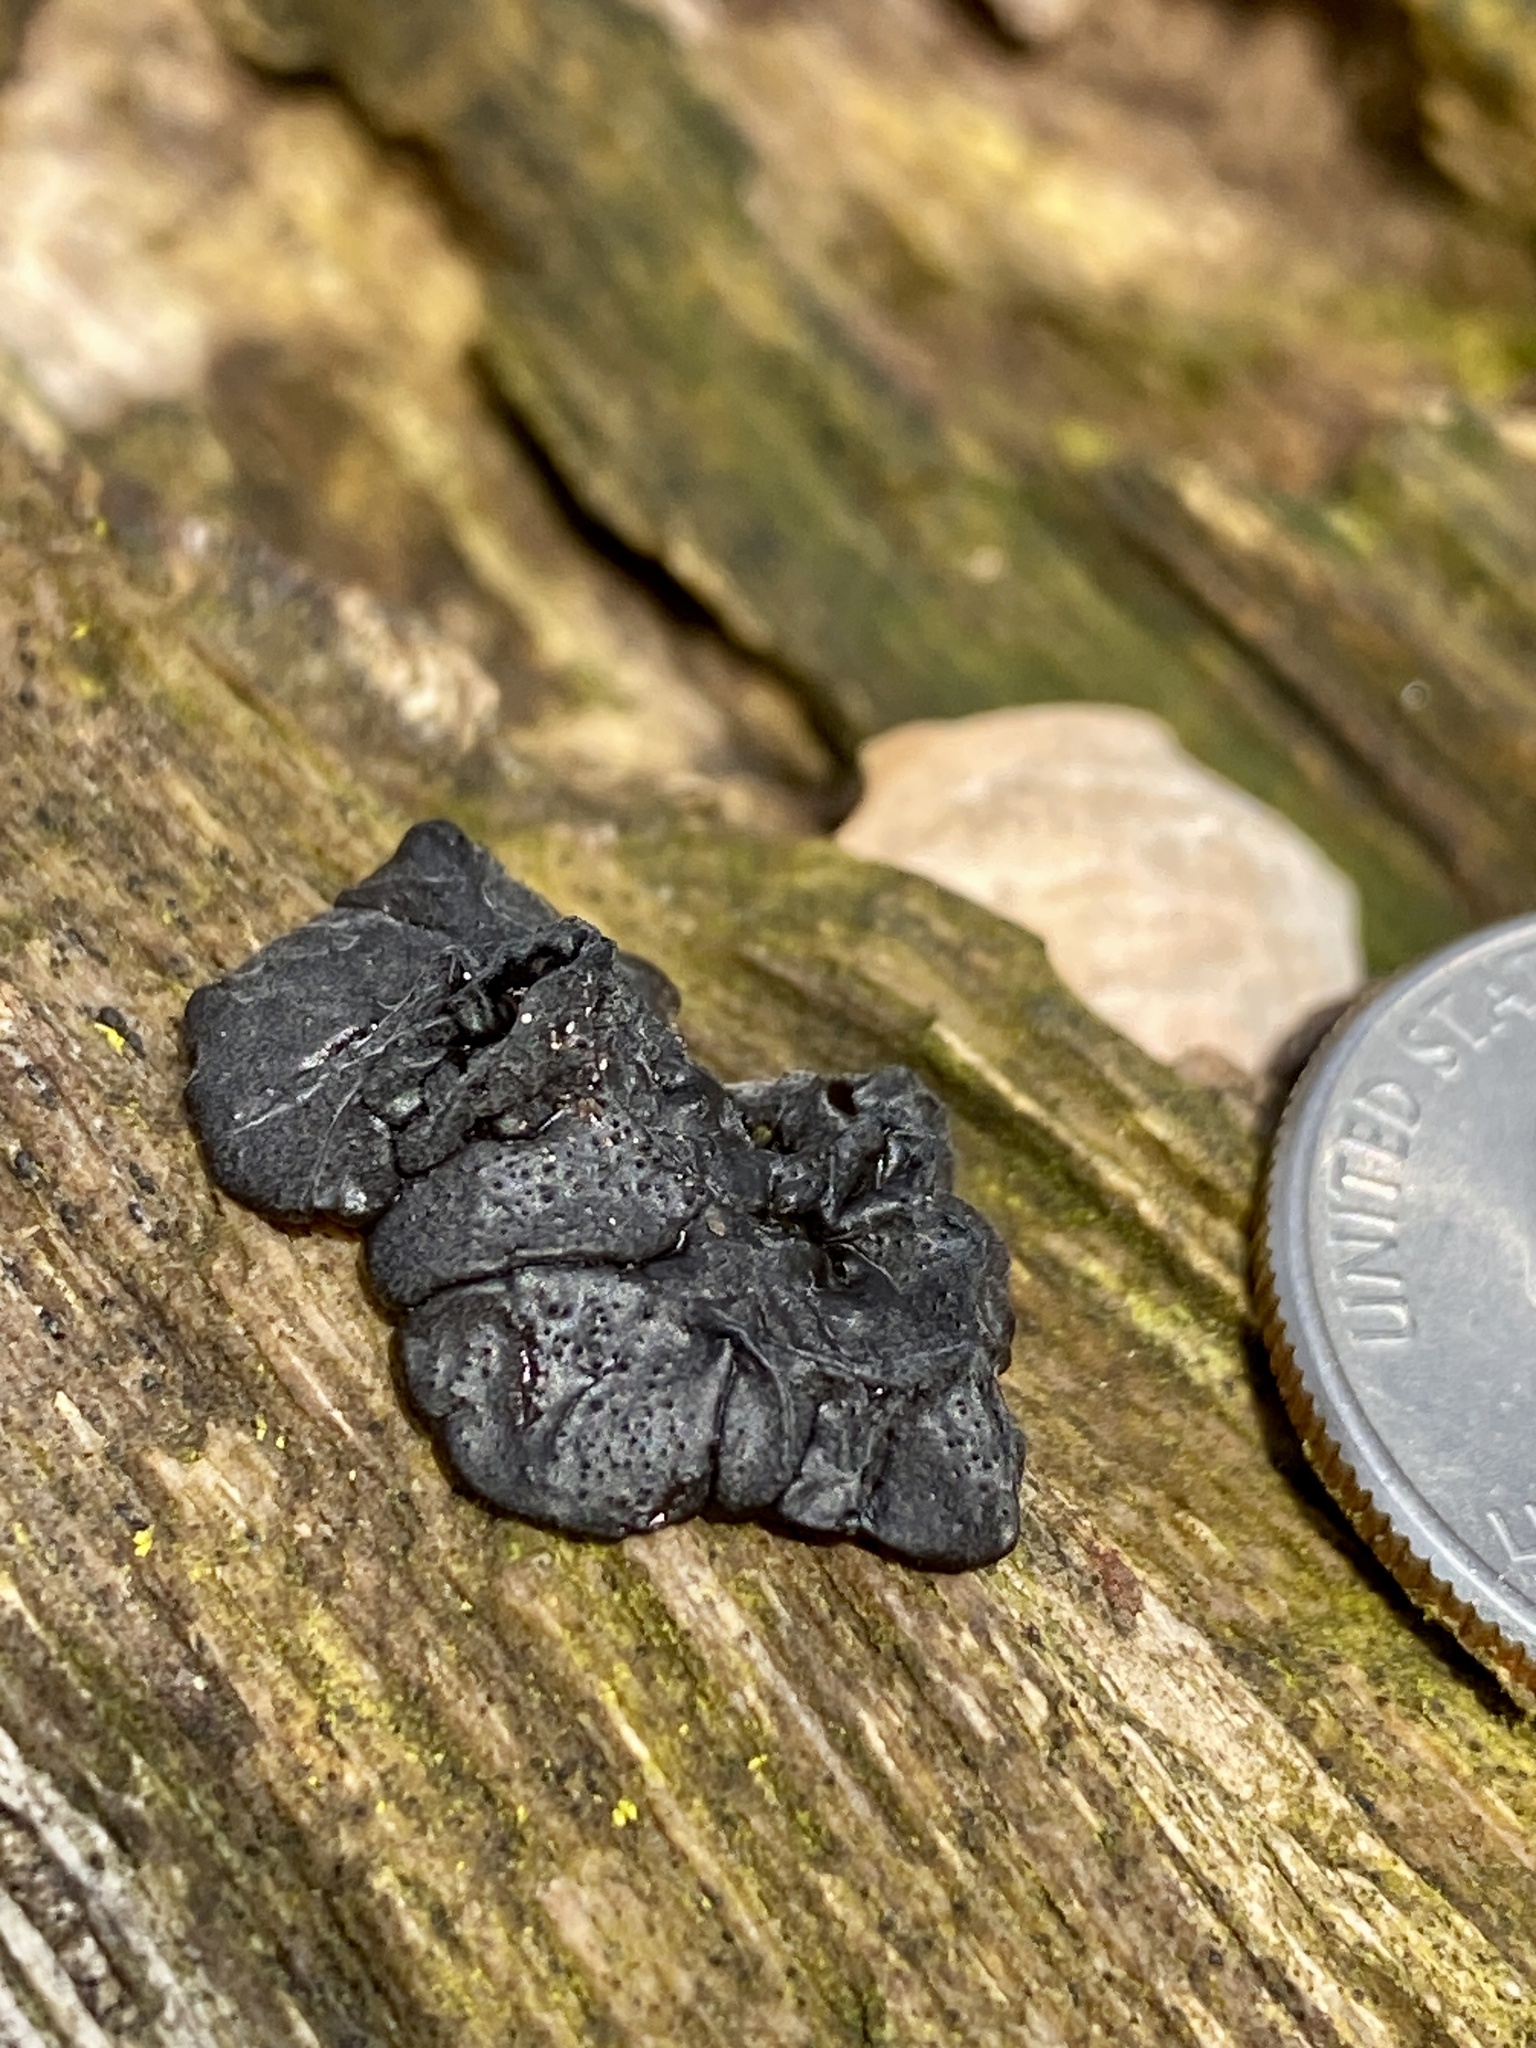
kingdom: Fungi
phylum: Basidiomycota
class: Agaricomycetes
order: Auriculariales
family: Auriculariaceae
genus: Exidia
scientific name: Exidia nigricans
